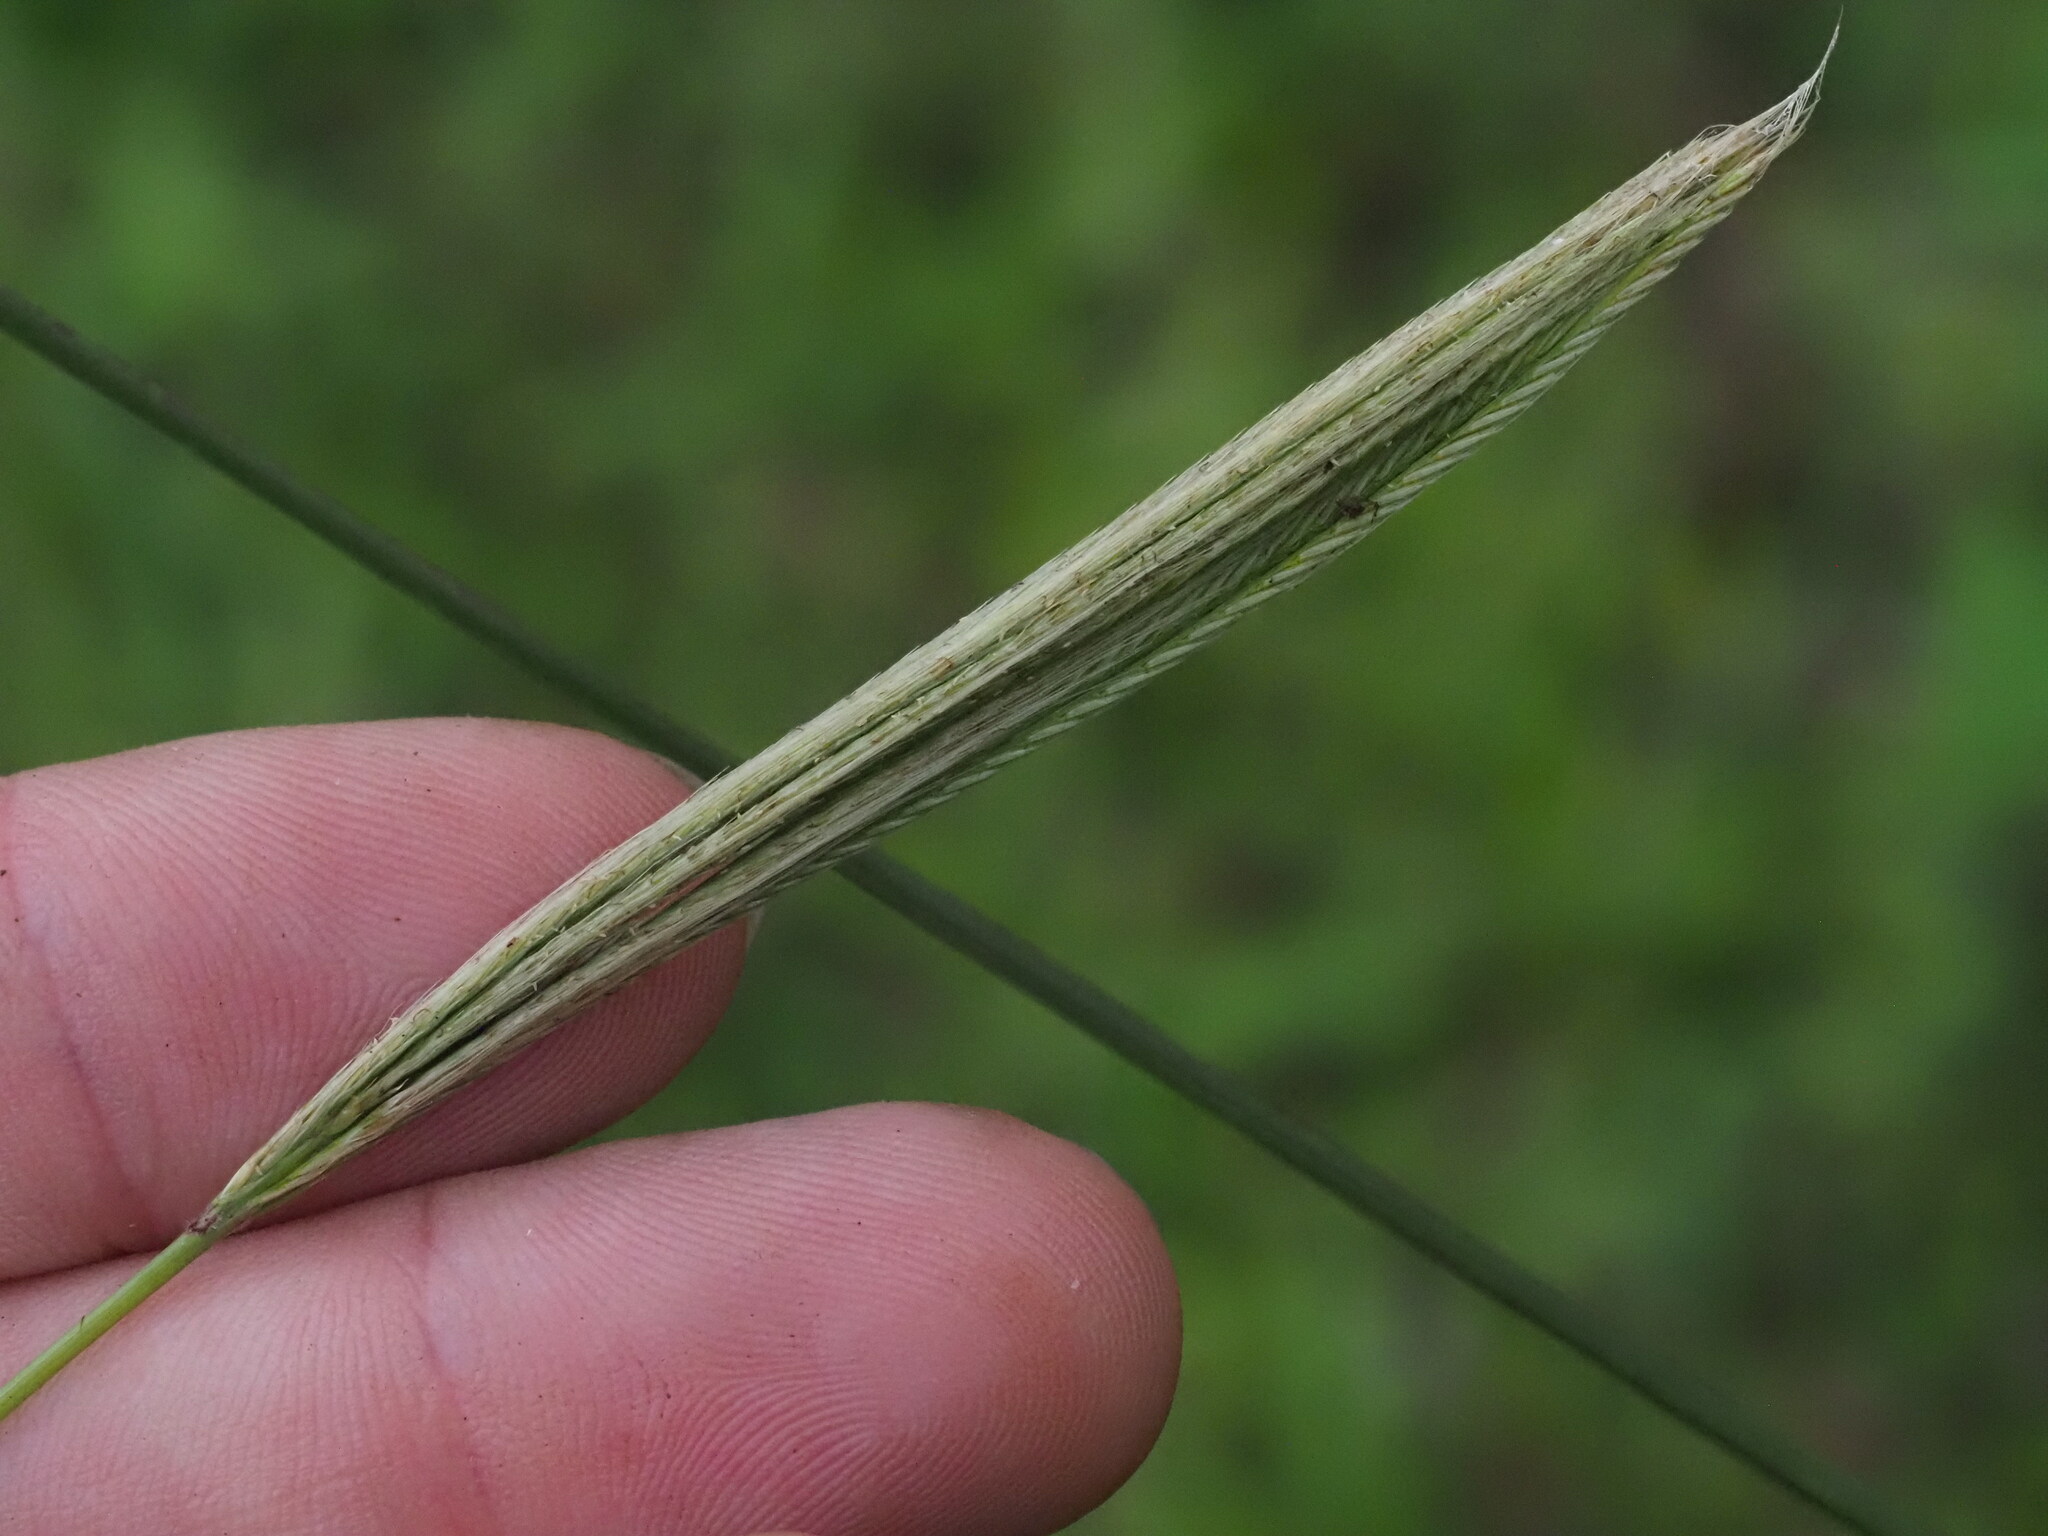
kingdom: Plantae
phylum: Tracheophyta
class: Liliopsida
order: Poales
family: Poaceae
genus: Chloris
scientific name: Chloris virgata
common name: Feathery rhodes-grass
